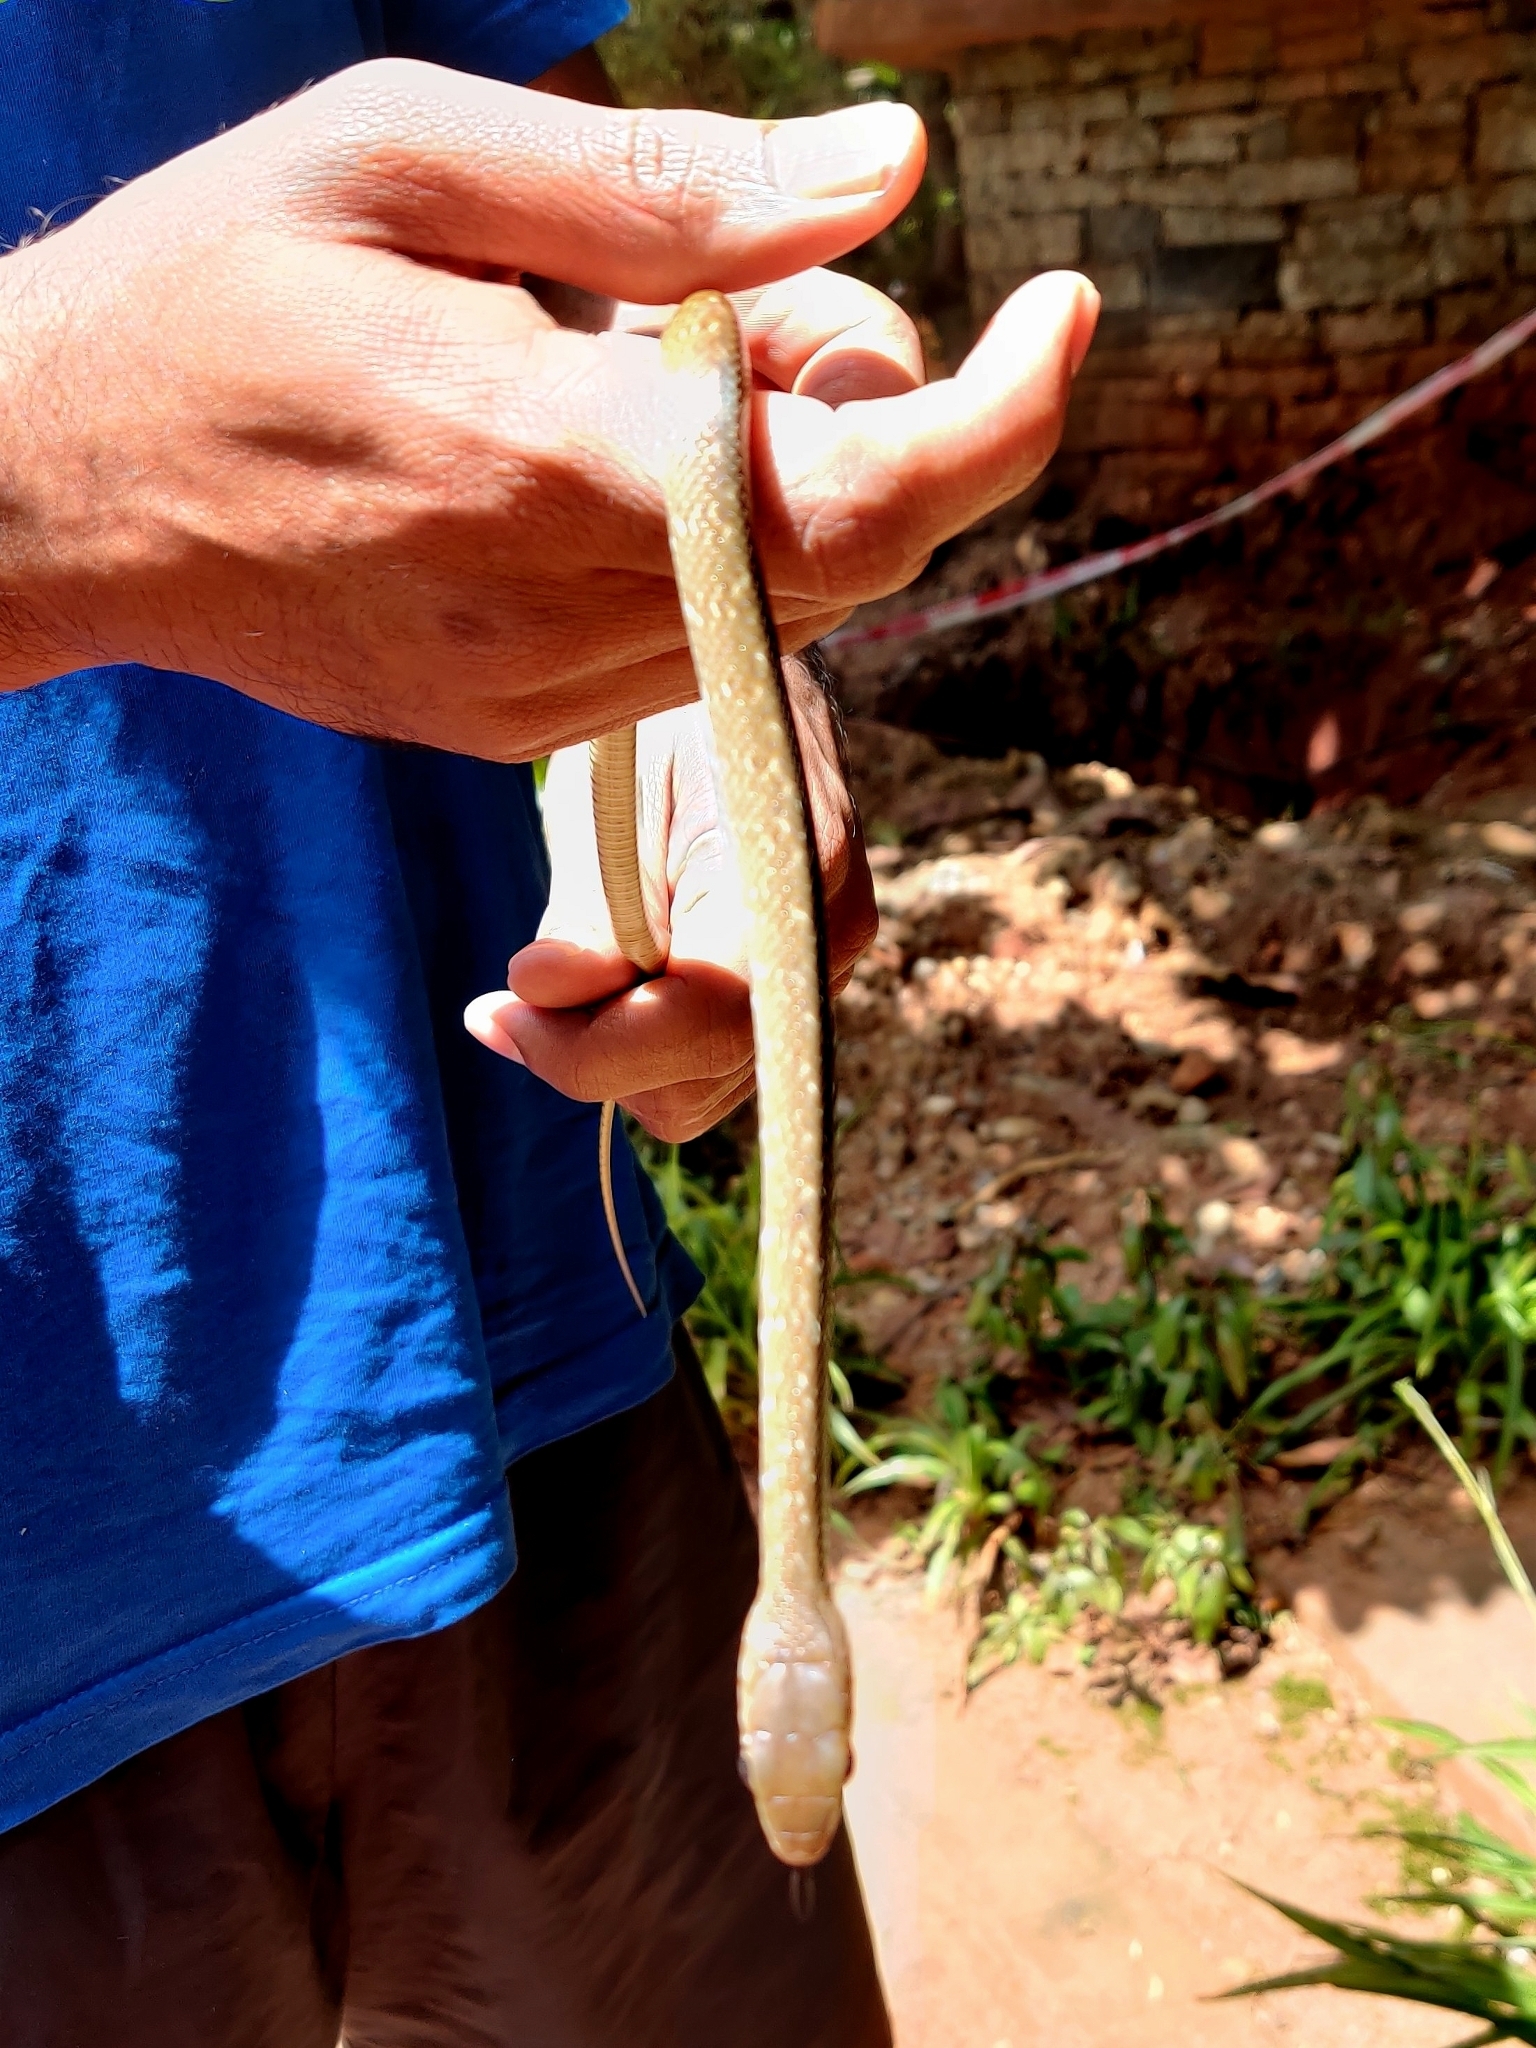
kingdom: Animalia
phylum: Chordata
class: Squamata
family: Colubridae
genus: Ptyas
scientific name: Ptyas mucosa
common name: Oriental ratsnake
